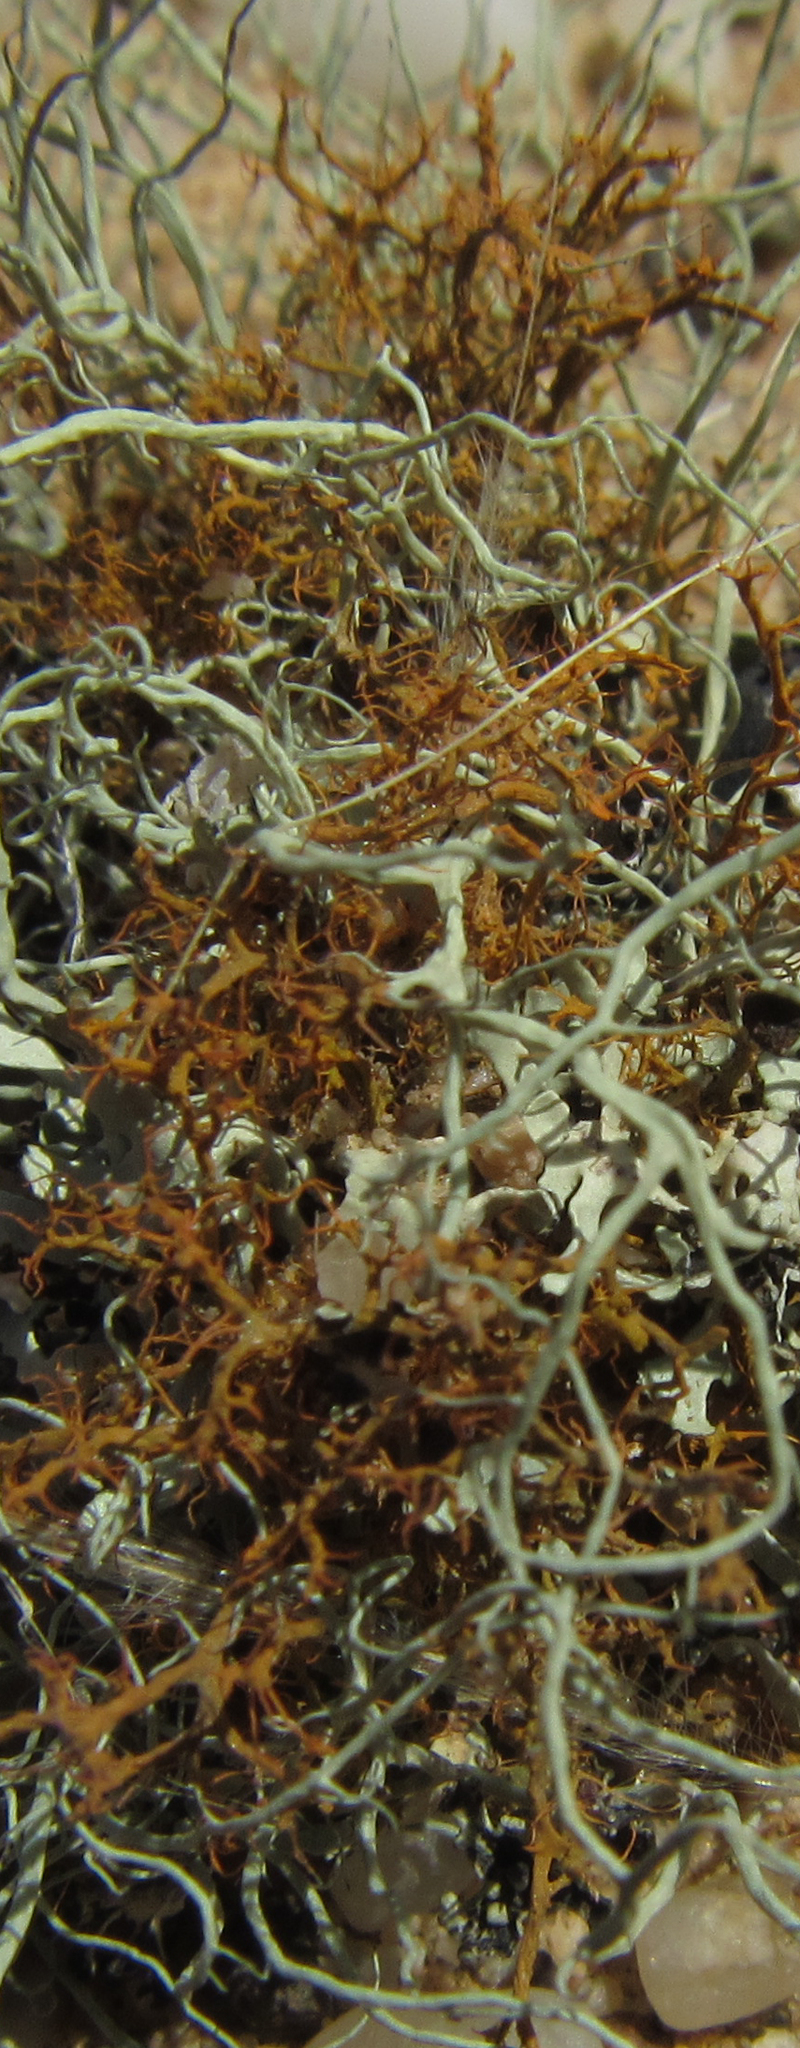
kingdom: Fungi
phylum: Ascomycota
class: Lecanoromycetes
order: Teloschistales
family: Teloschistaceae
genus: Teloschistes
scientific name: Teloschistes puber
